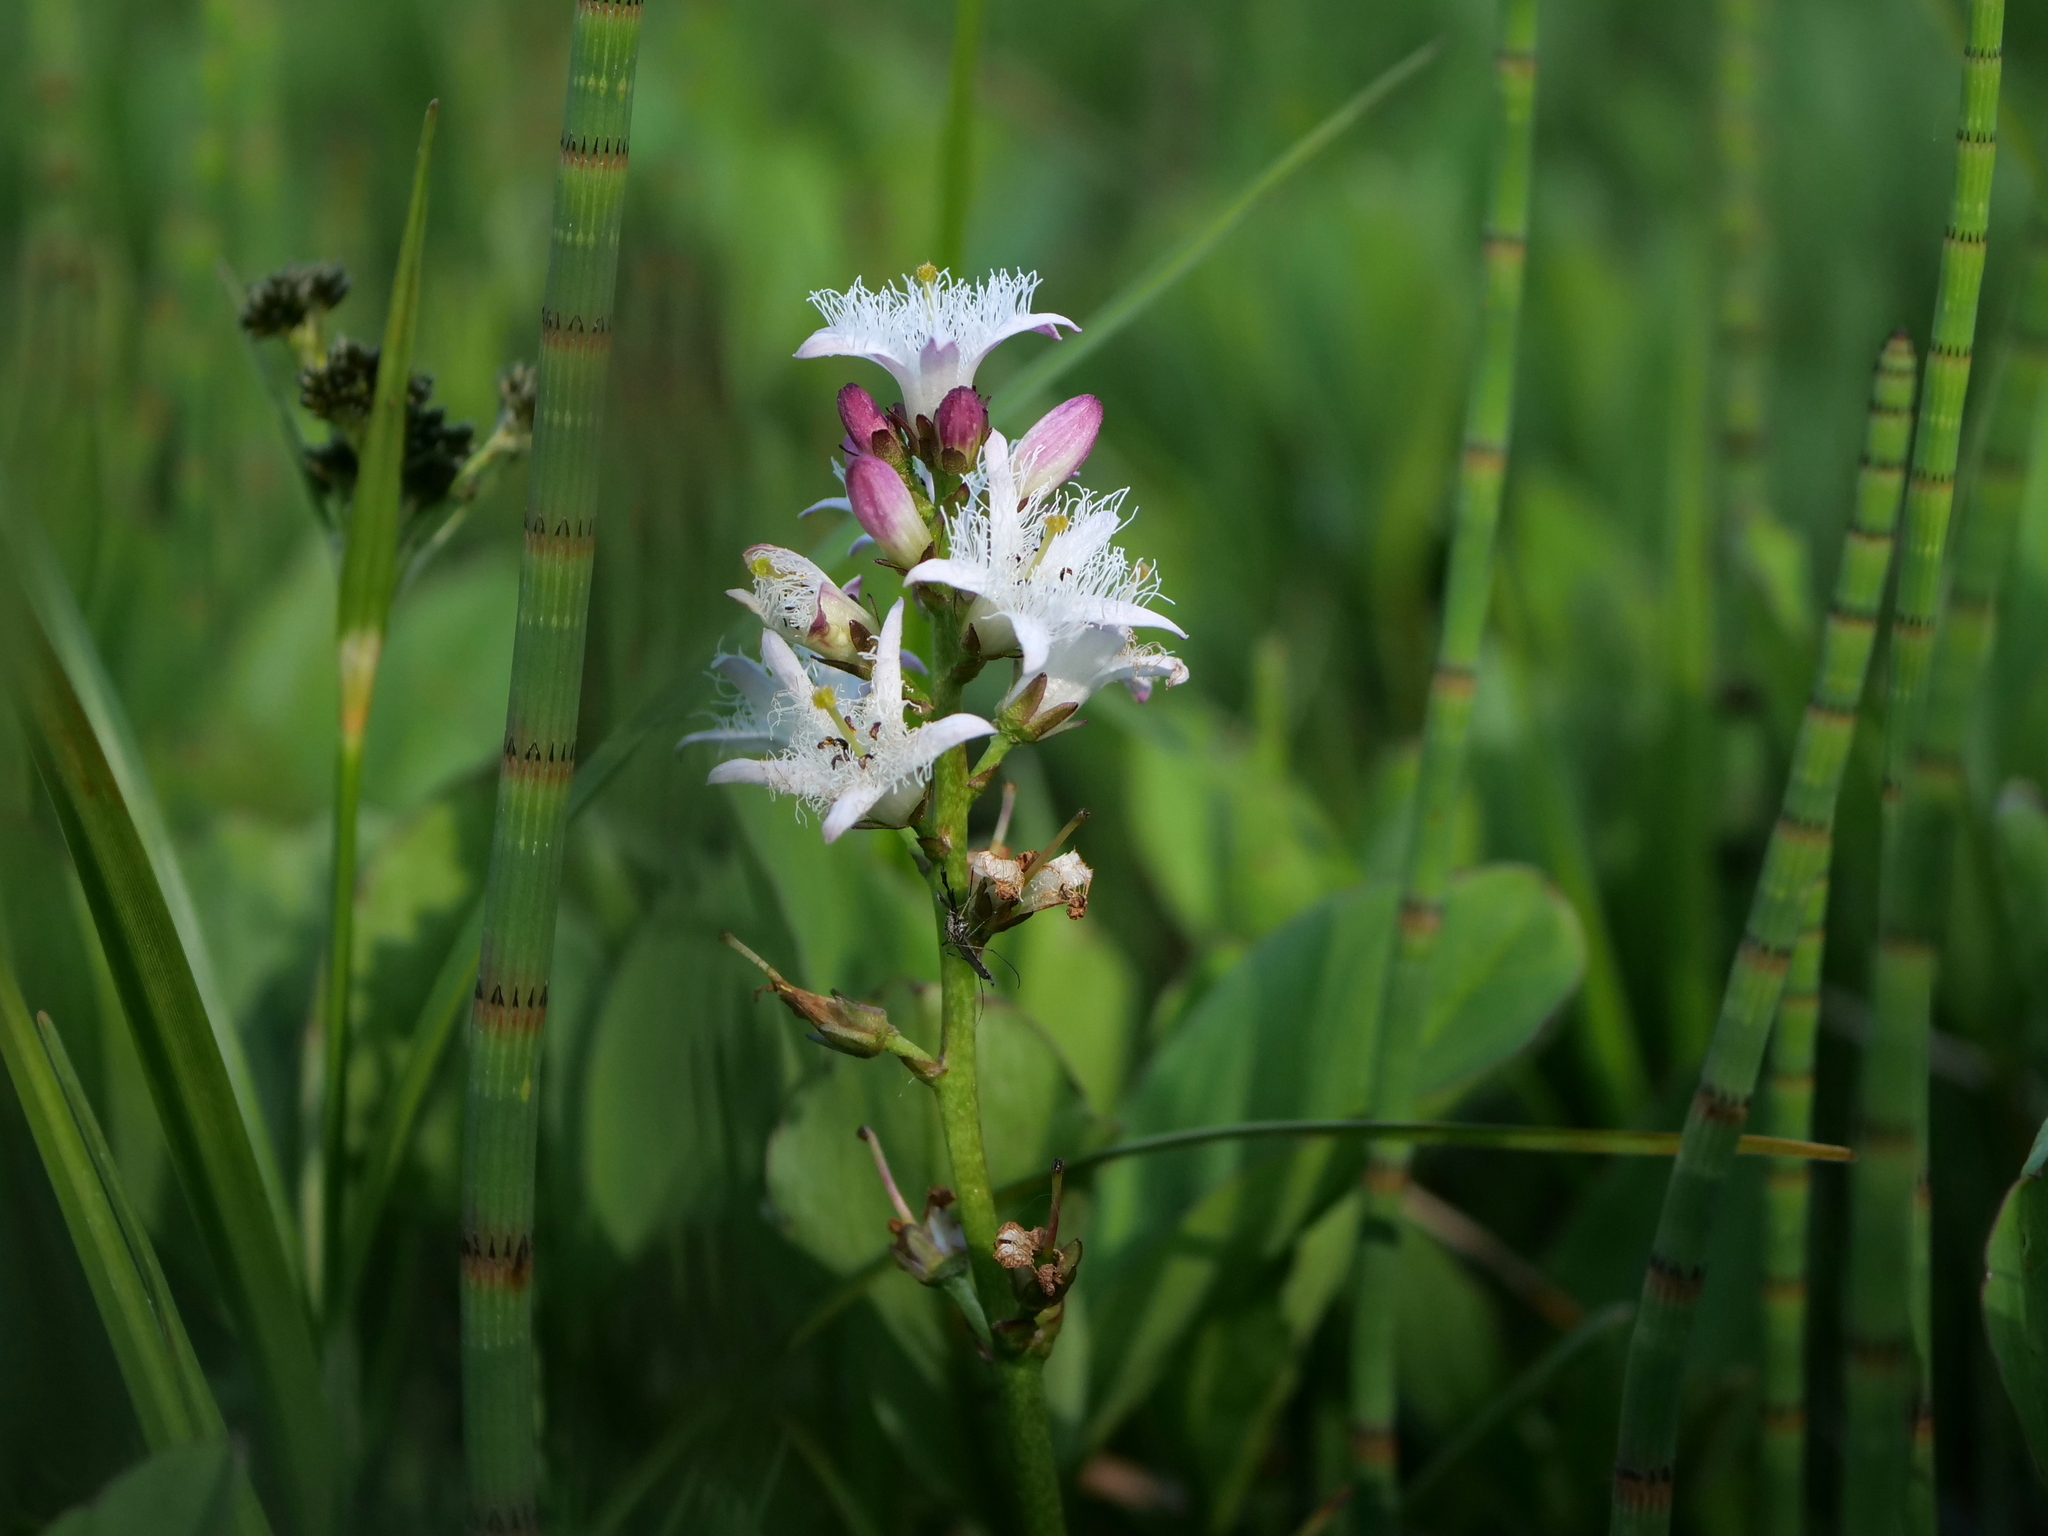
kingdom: Plantae
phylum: Tracheophyta
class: Magnoliopsida
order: Asterales
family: Menyanthaceae
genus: Menyanthes
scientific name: Menyanthes trifoliata
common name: Bogbean
